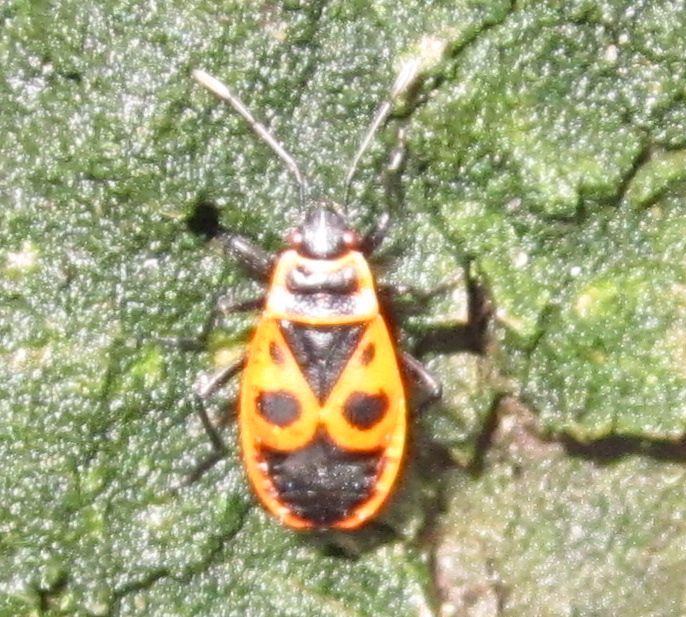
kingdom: Animalia
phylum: Arthropoda
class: Insecta
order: Hemiptera
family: Pyrrhocoridae
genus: Pyrrhocoris
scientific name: Pyrrhocoris apterus
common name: Firebug
